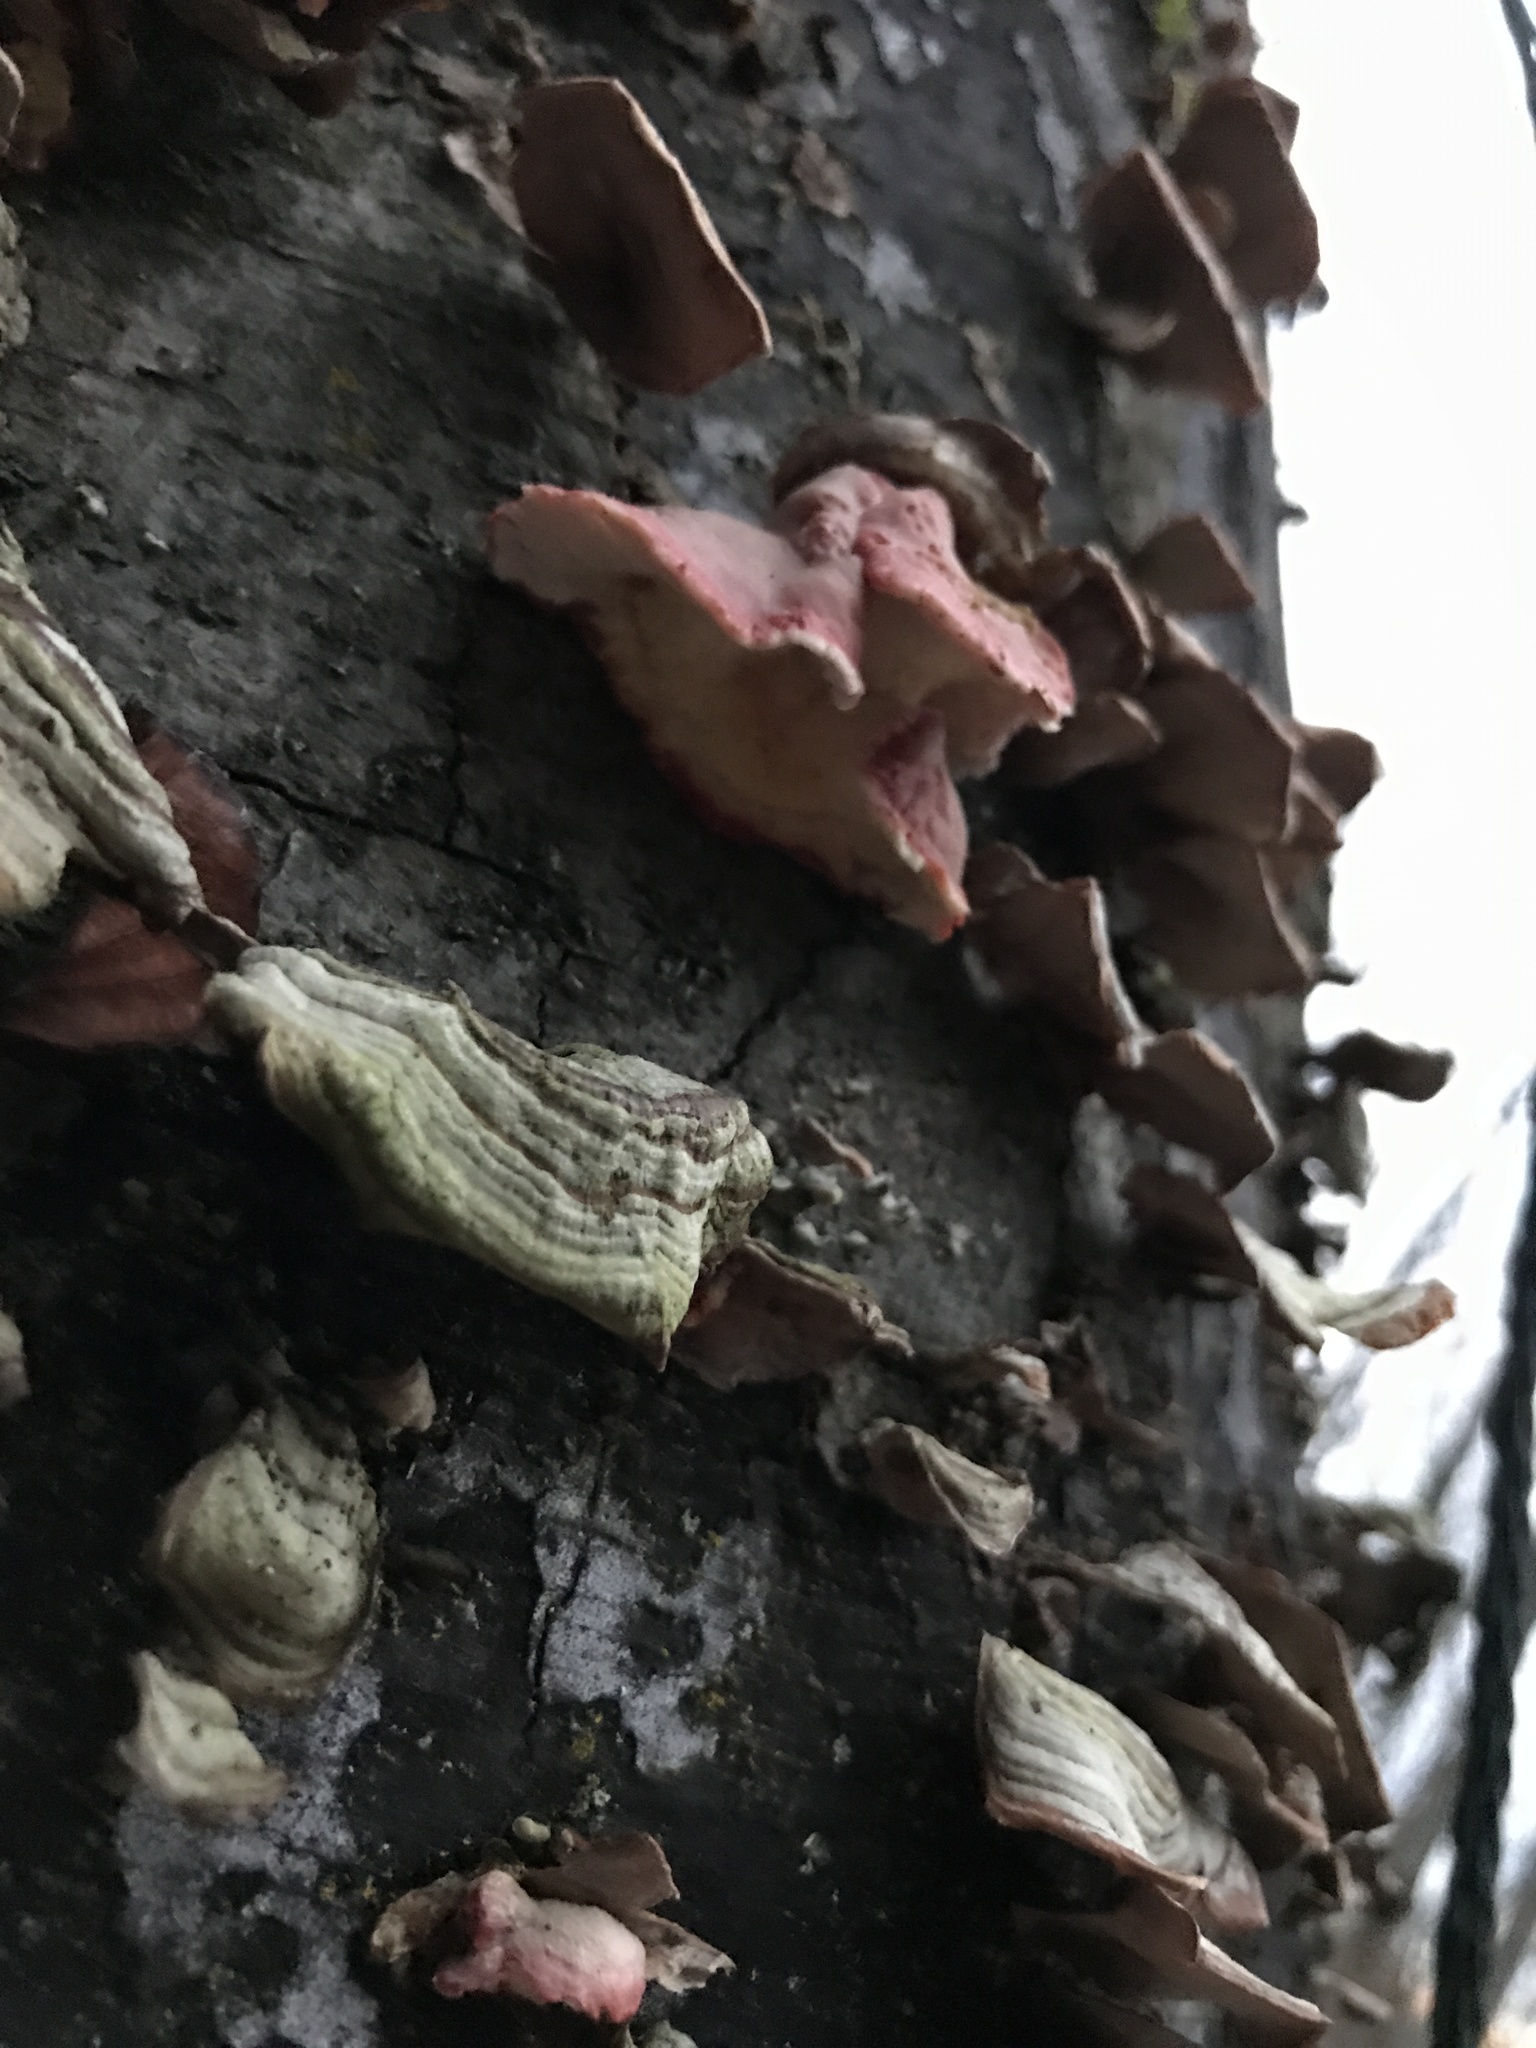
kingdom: Fungi
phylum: Basidiomycota
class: Agaricomycetes
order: Polyporales
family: Irpicaceae
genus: Byssomerulius
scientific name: Byssomerulius incarnatus
